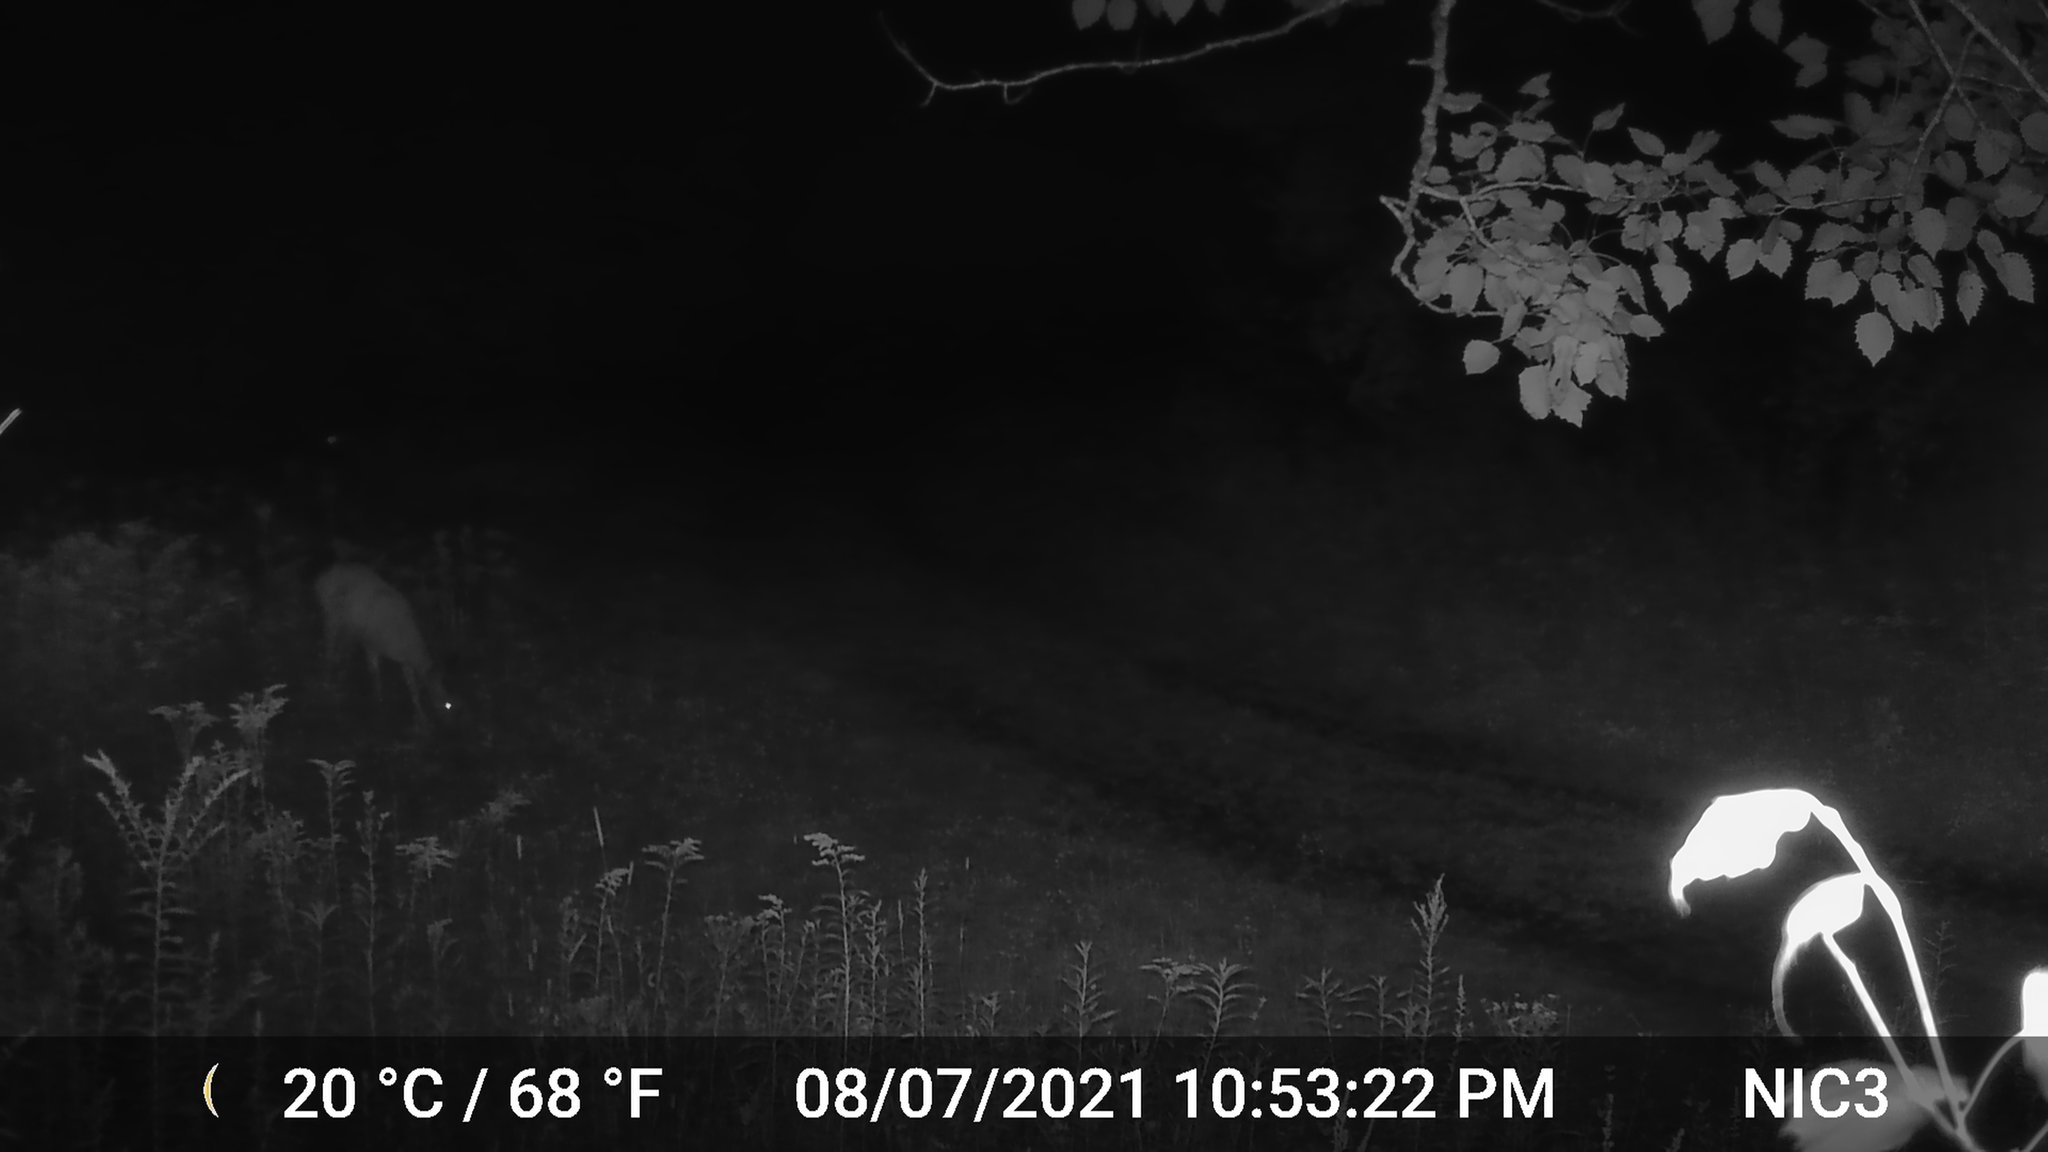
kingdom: Animalia
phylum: Chordata
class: Mammalia
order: Artiodactyla
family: Cervidae
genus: Odocoileus
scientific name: Odocoileus virginianus
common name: White-tailed deer
